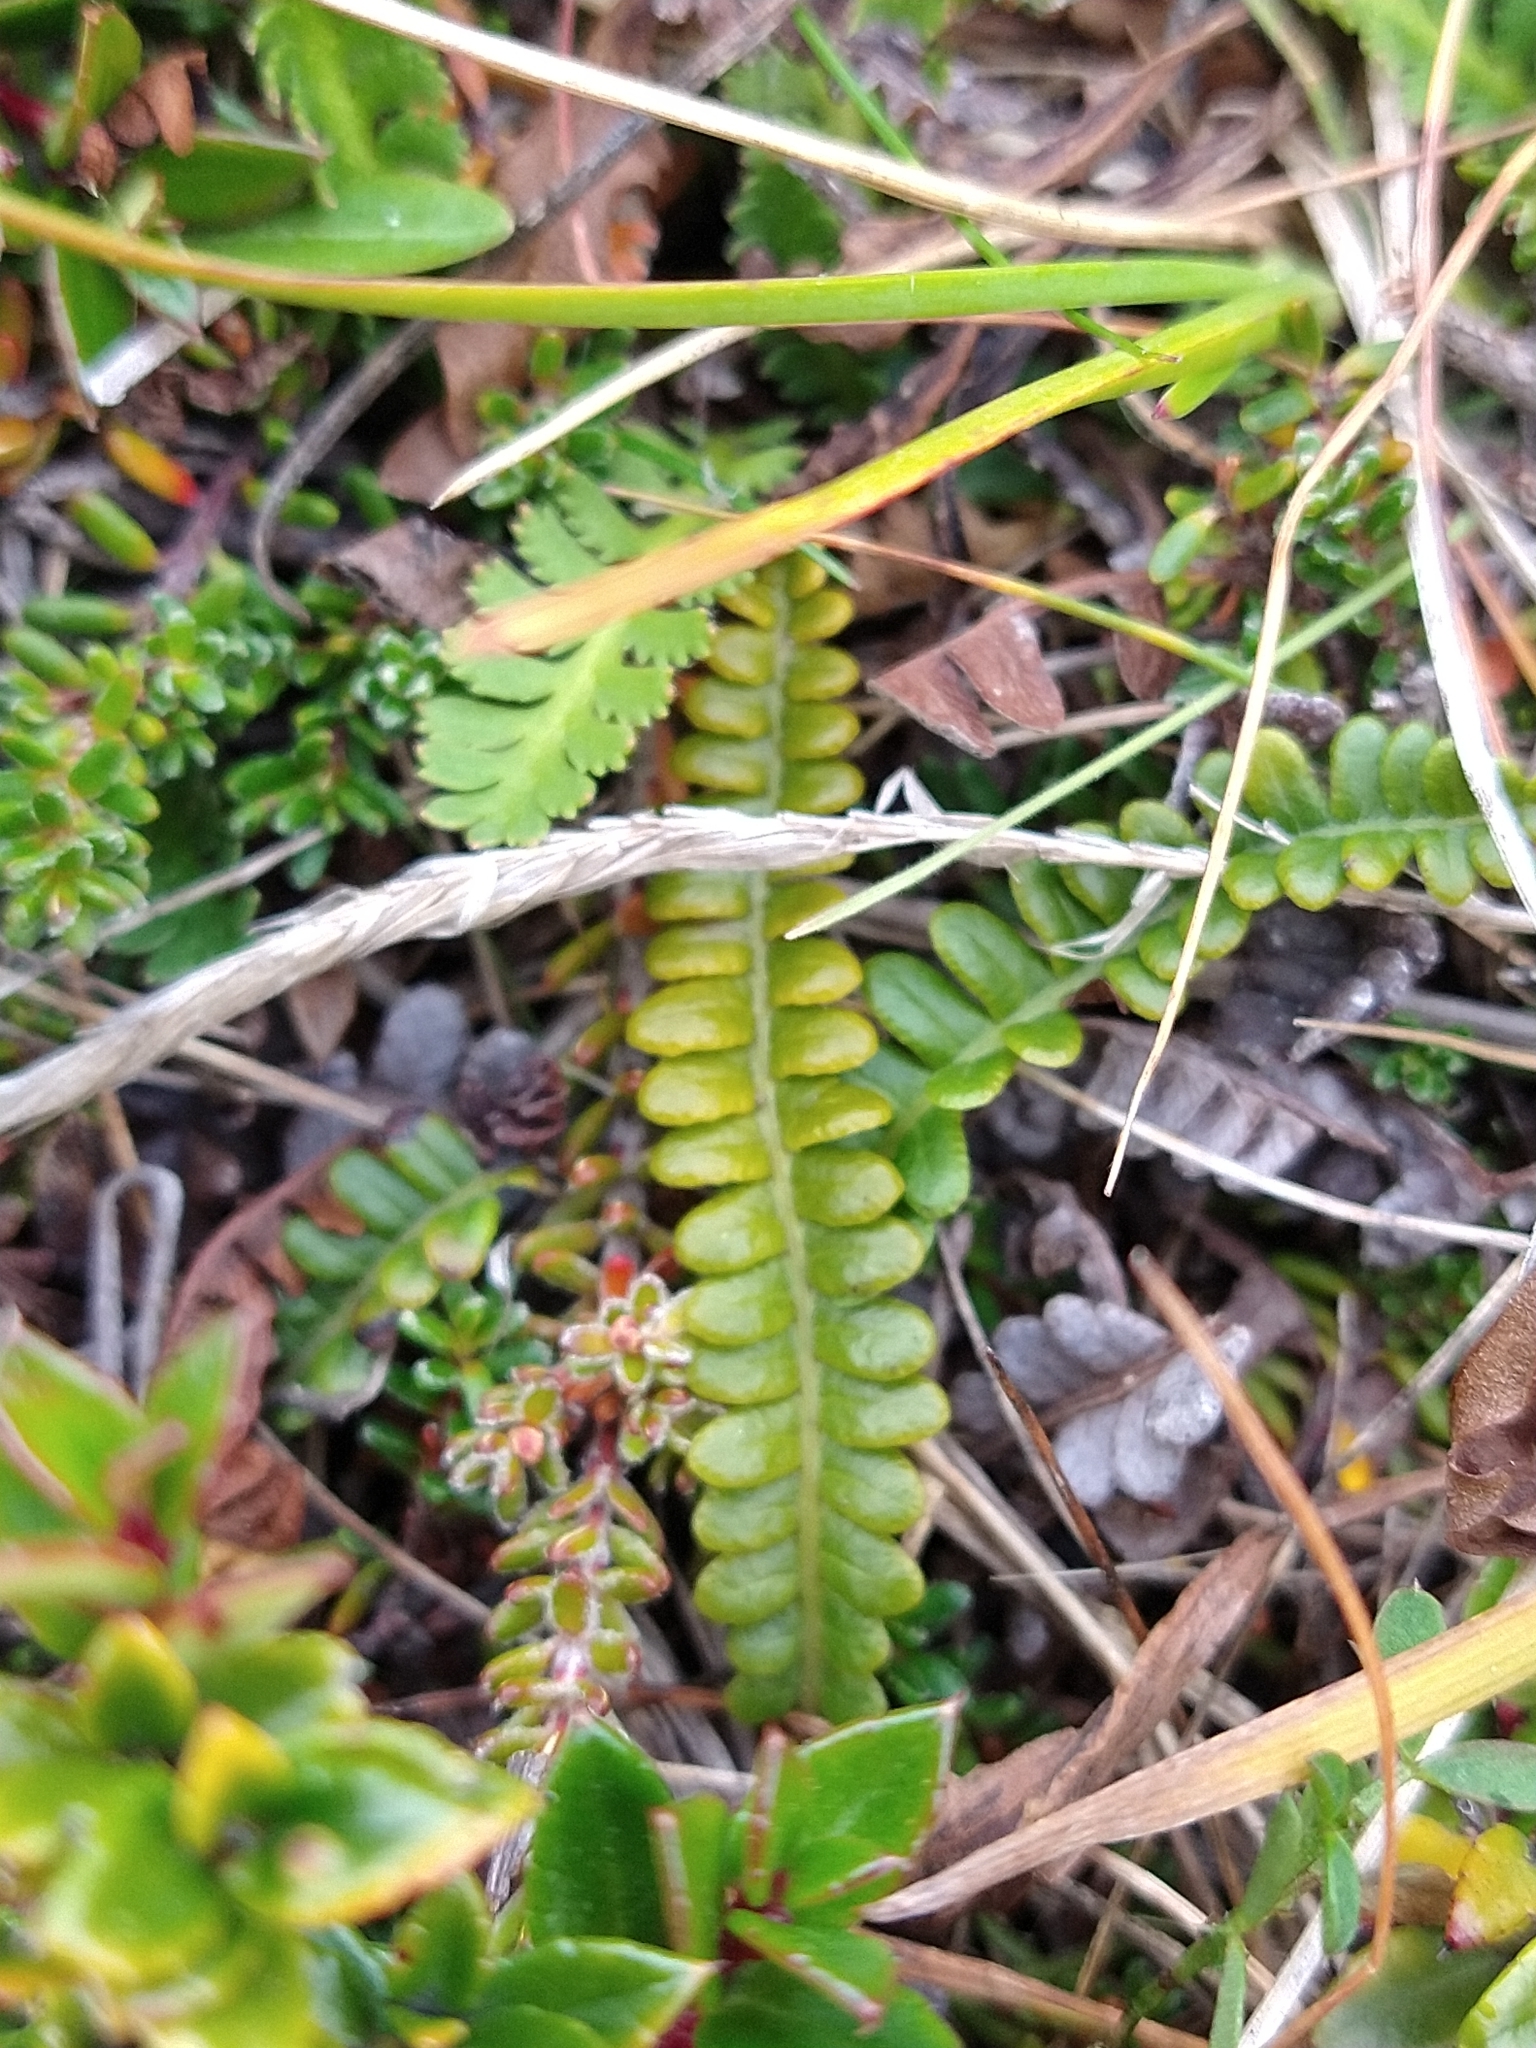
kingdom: Plantae
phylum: Tracheophyta
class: Polypodiopsida
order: Polypodiales
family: Blechnaceae
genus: Austroblechnum
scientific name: Austroblechnum penna-marina
